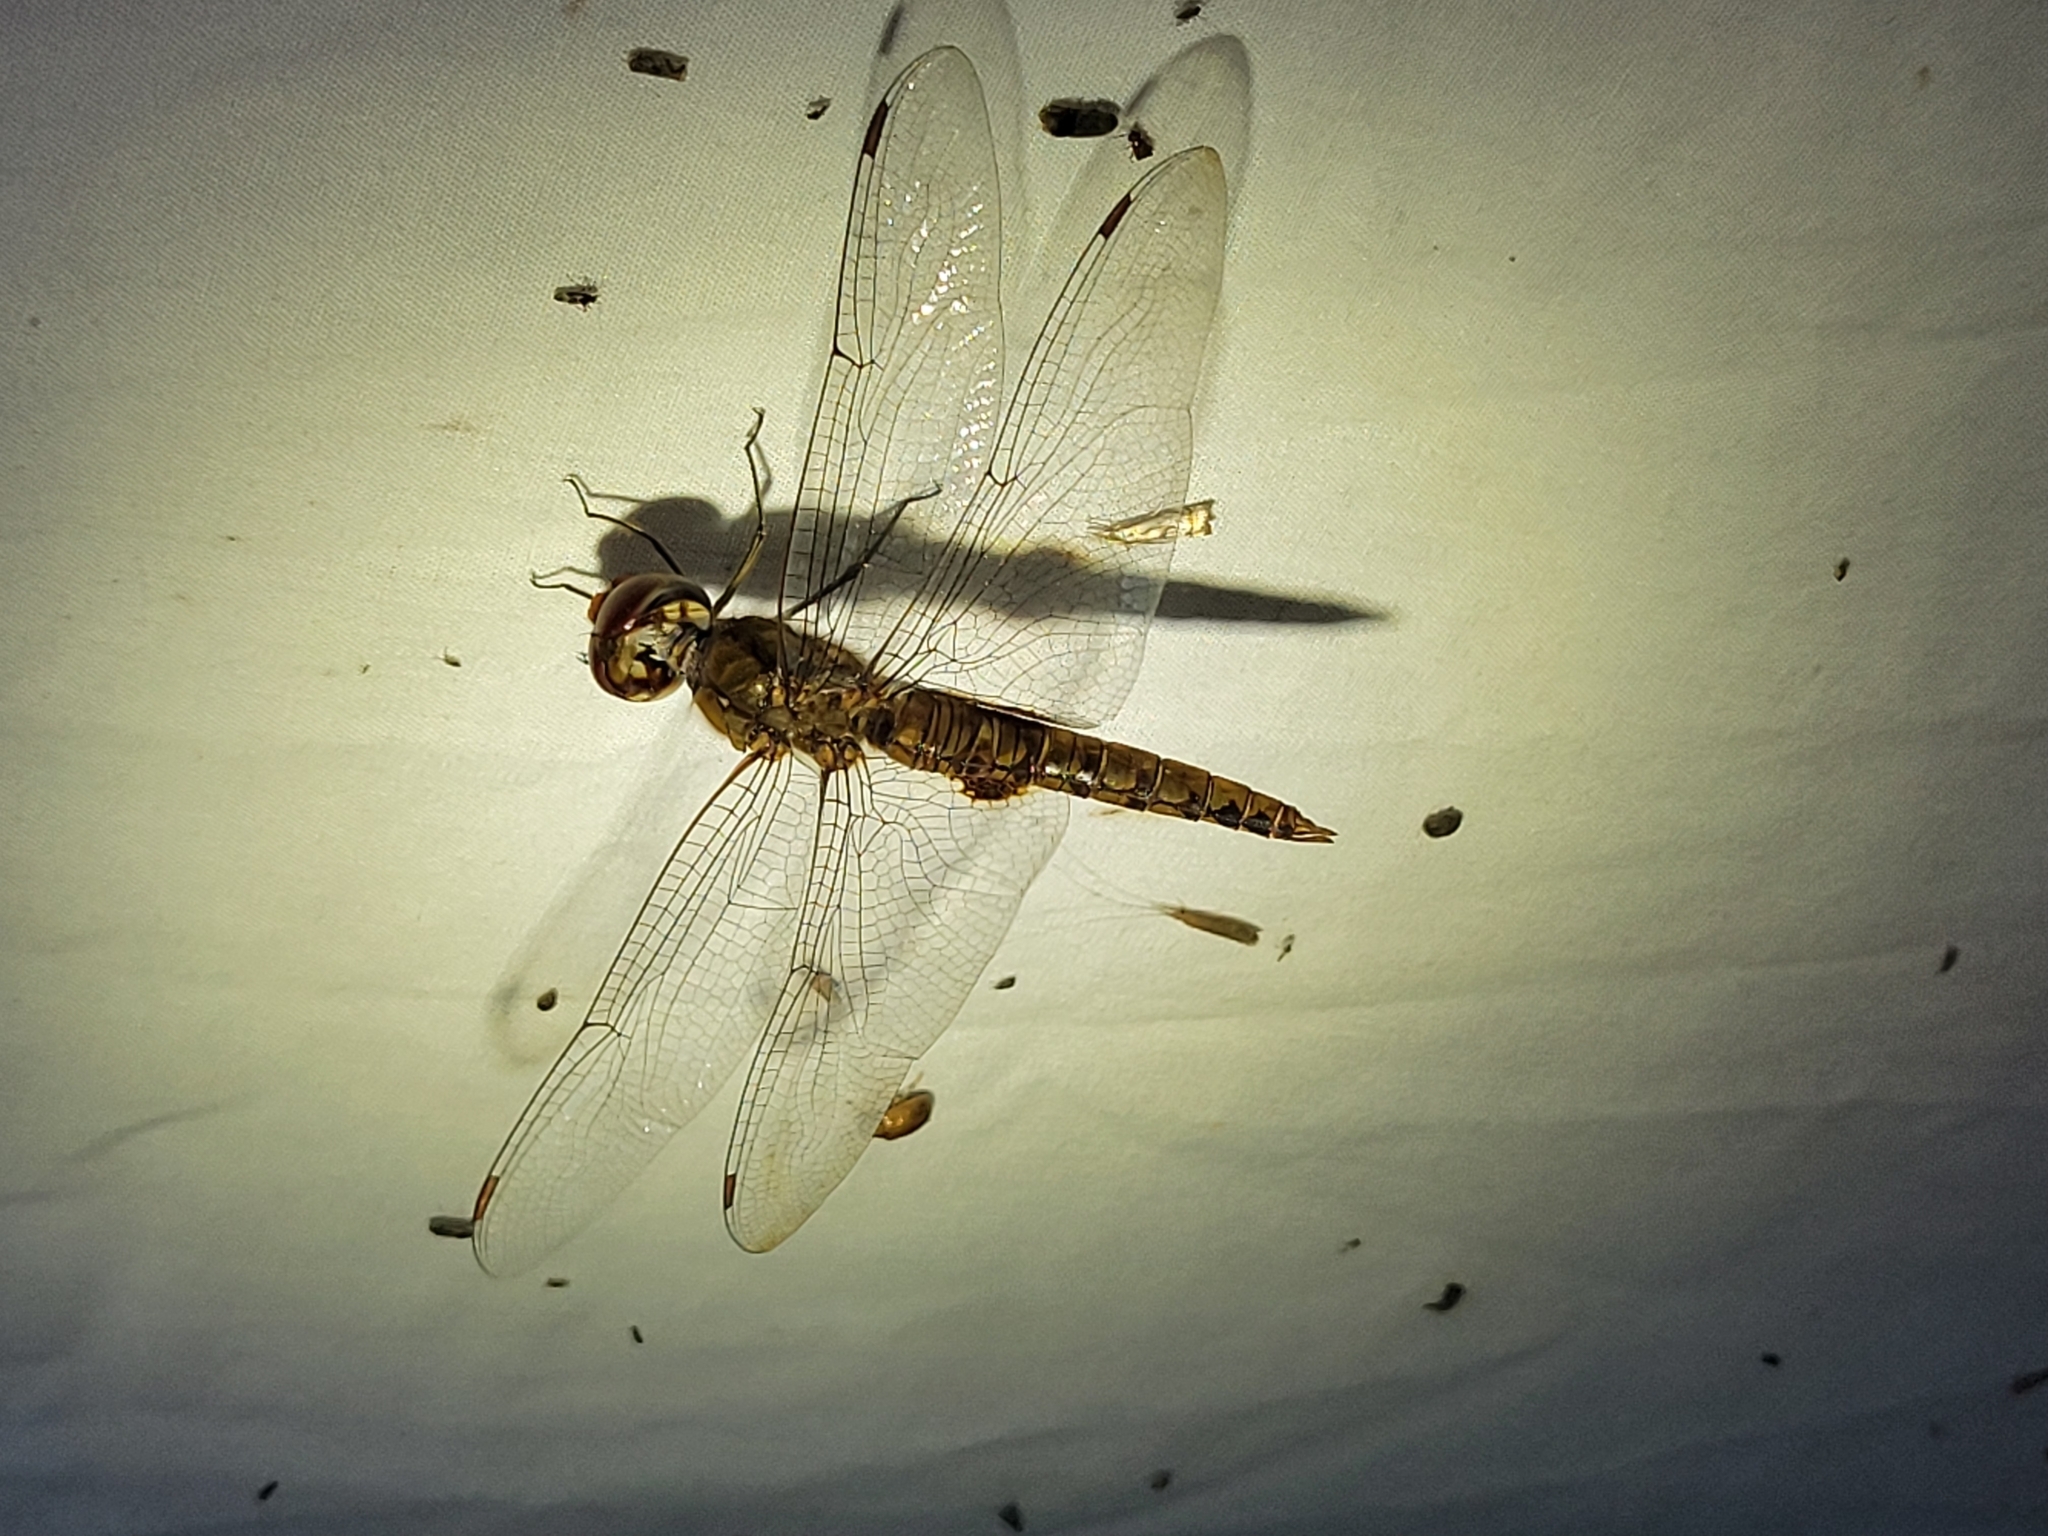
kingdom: Animalia
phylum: Arthropoda
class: Insecta
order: Odonata
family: Libellulidae
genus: Pantala
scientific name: Pantala hymenaea
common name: Spot-winged glider
